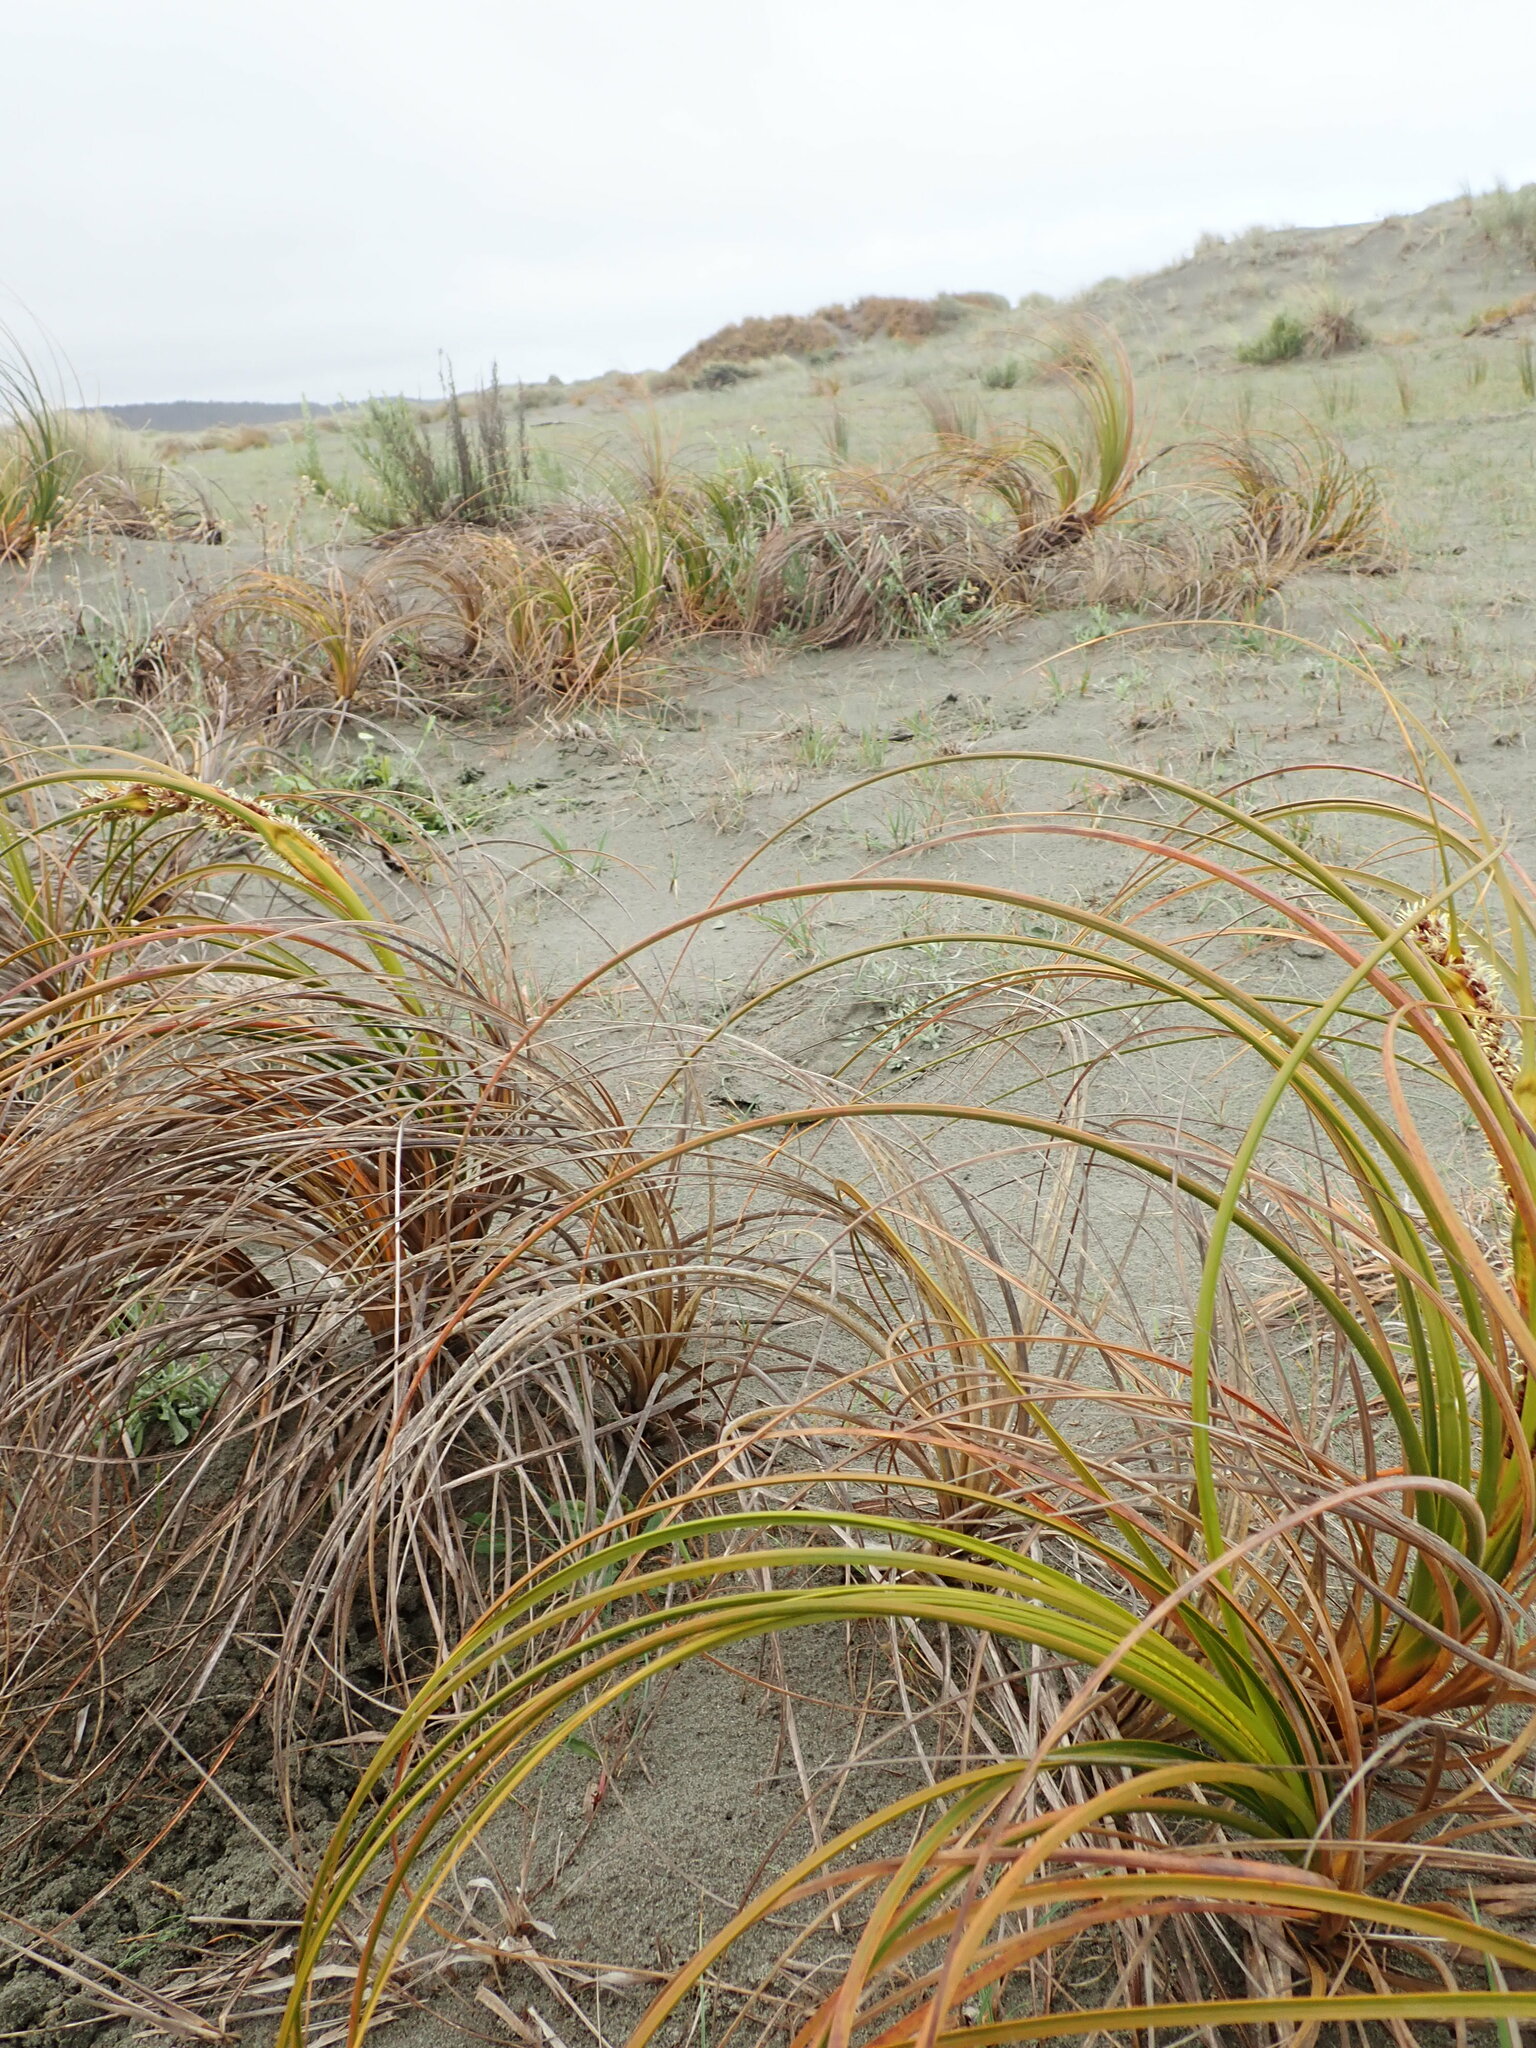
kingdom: Plantae
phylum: Tracheophyta
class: Liliopsida
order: Poales
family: Cyperaceae
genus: Ficinia
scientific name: Ficinia spiralis
